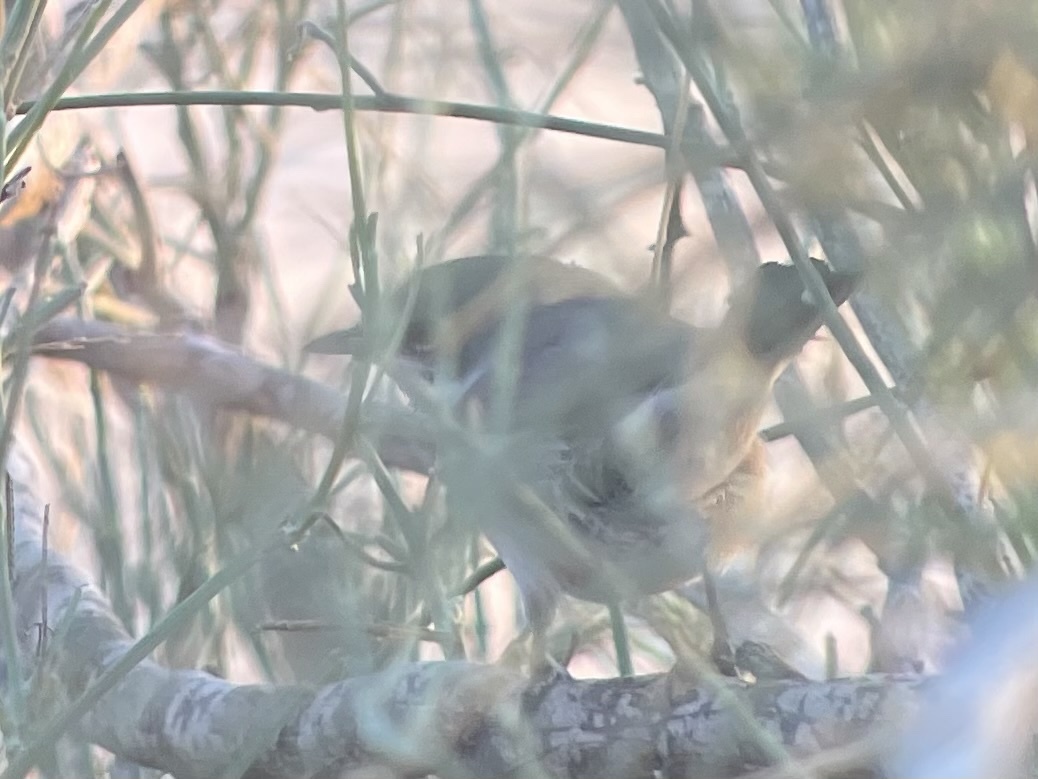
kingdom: Animalia
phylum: Chordata
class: Aves
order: Passeriformes
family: Sylviidae
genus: Sylvia
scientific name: Sylvia curruca
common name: Lesser whitethroat
